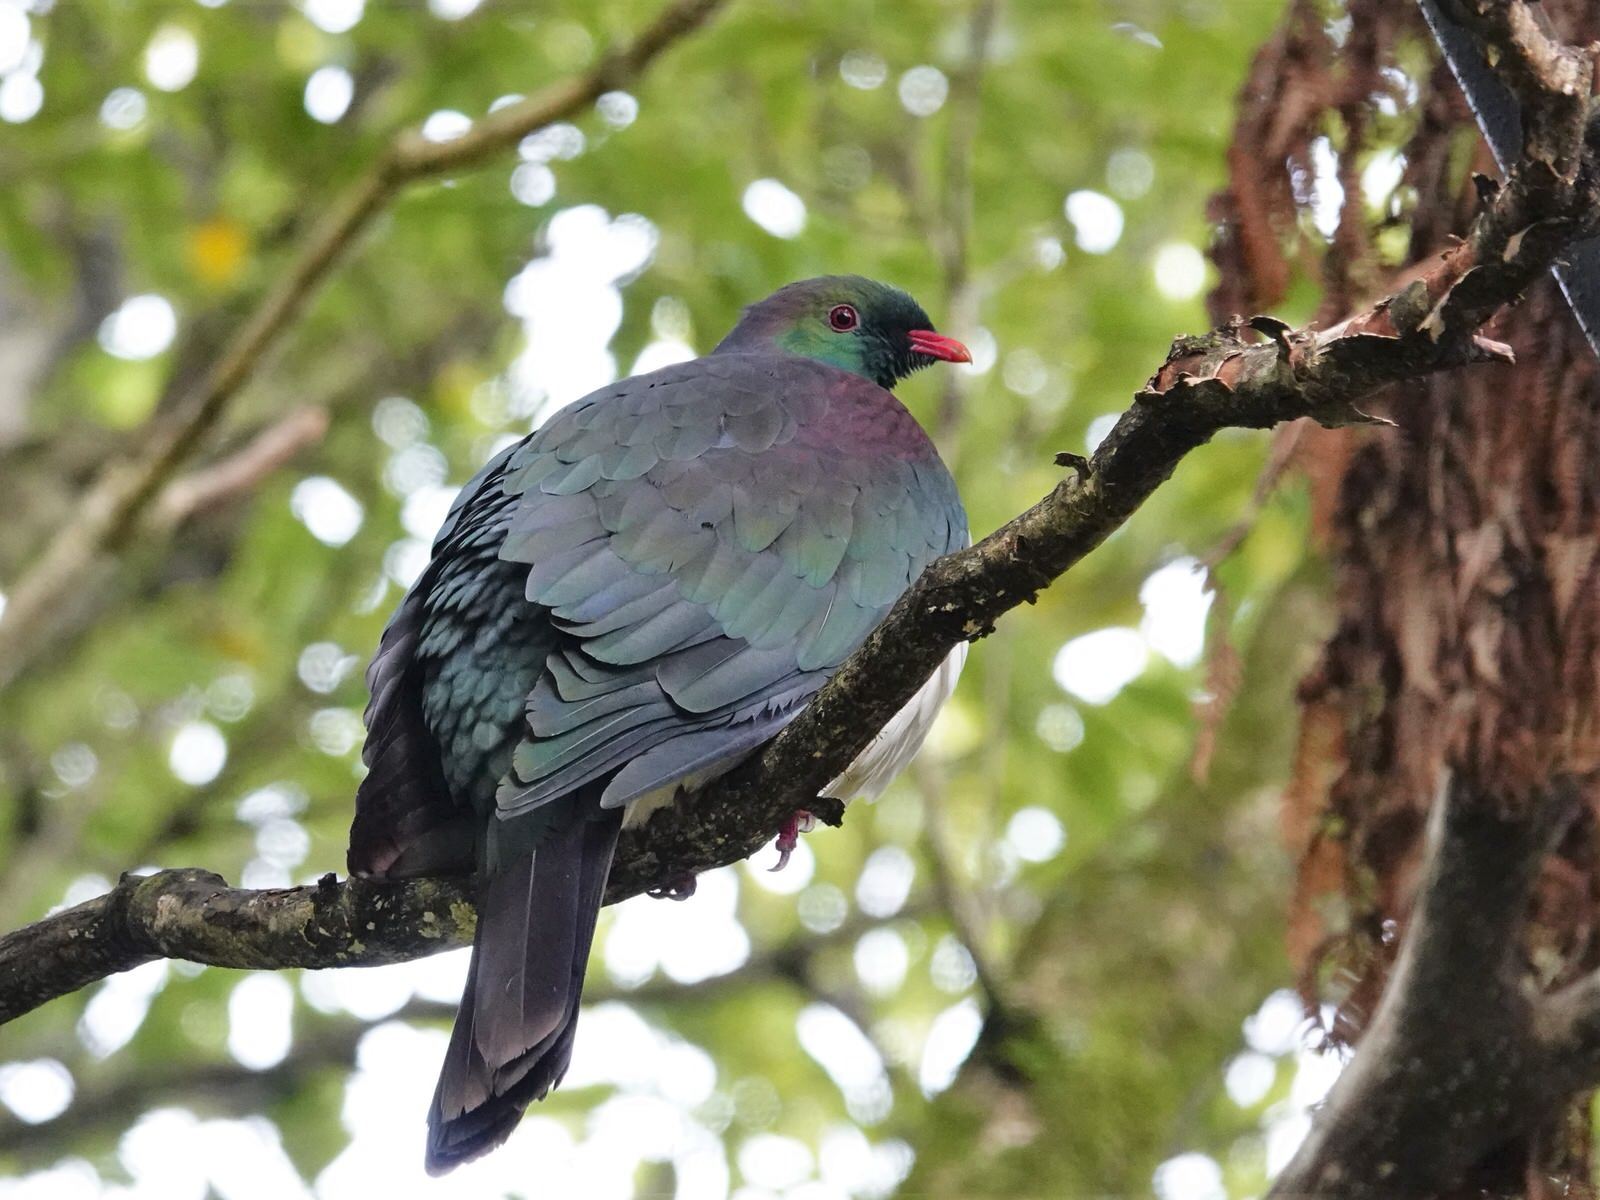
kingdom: Animalia
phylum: Chordata
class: Aves
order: Columbiformes
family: Columbidae
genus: Hemiphaga
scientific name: Hemiphaga novaeseelandiae
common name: New zealand pigeon
